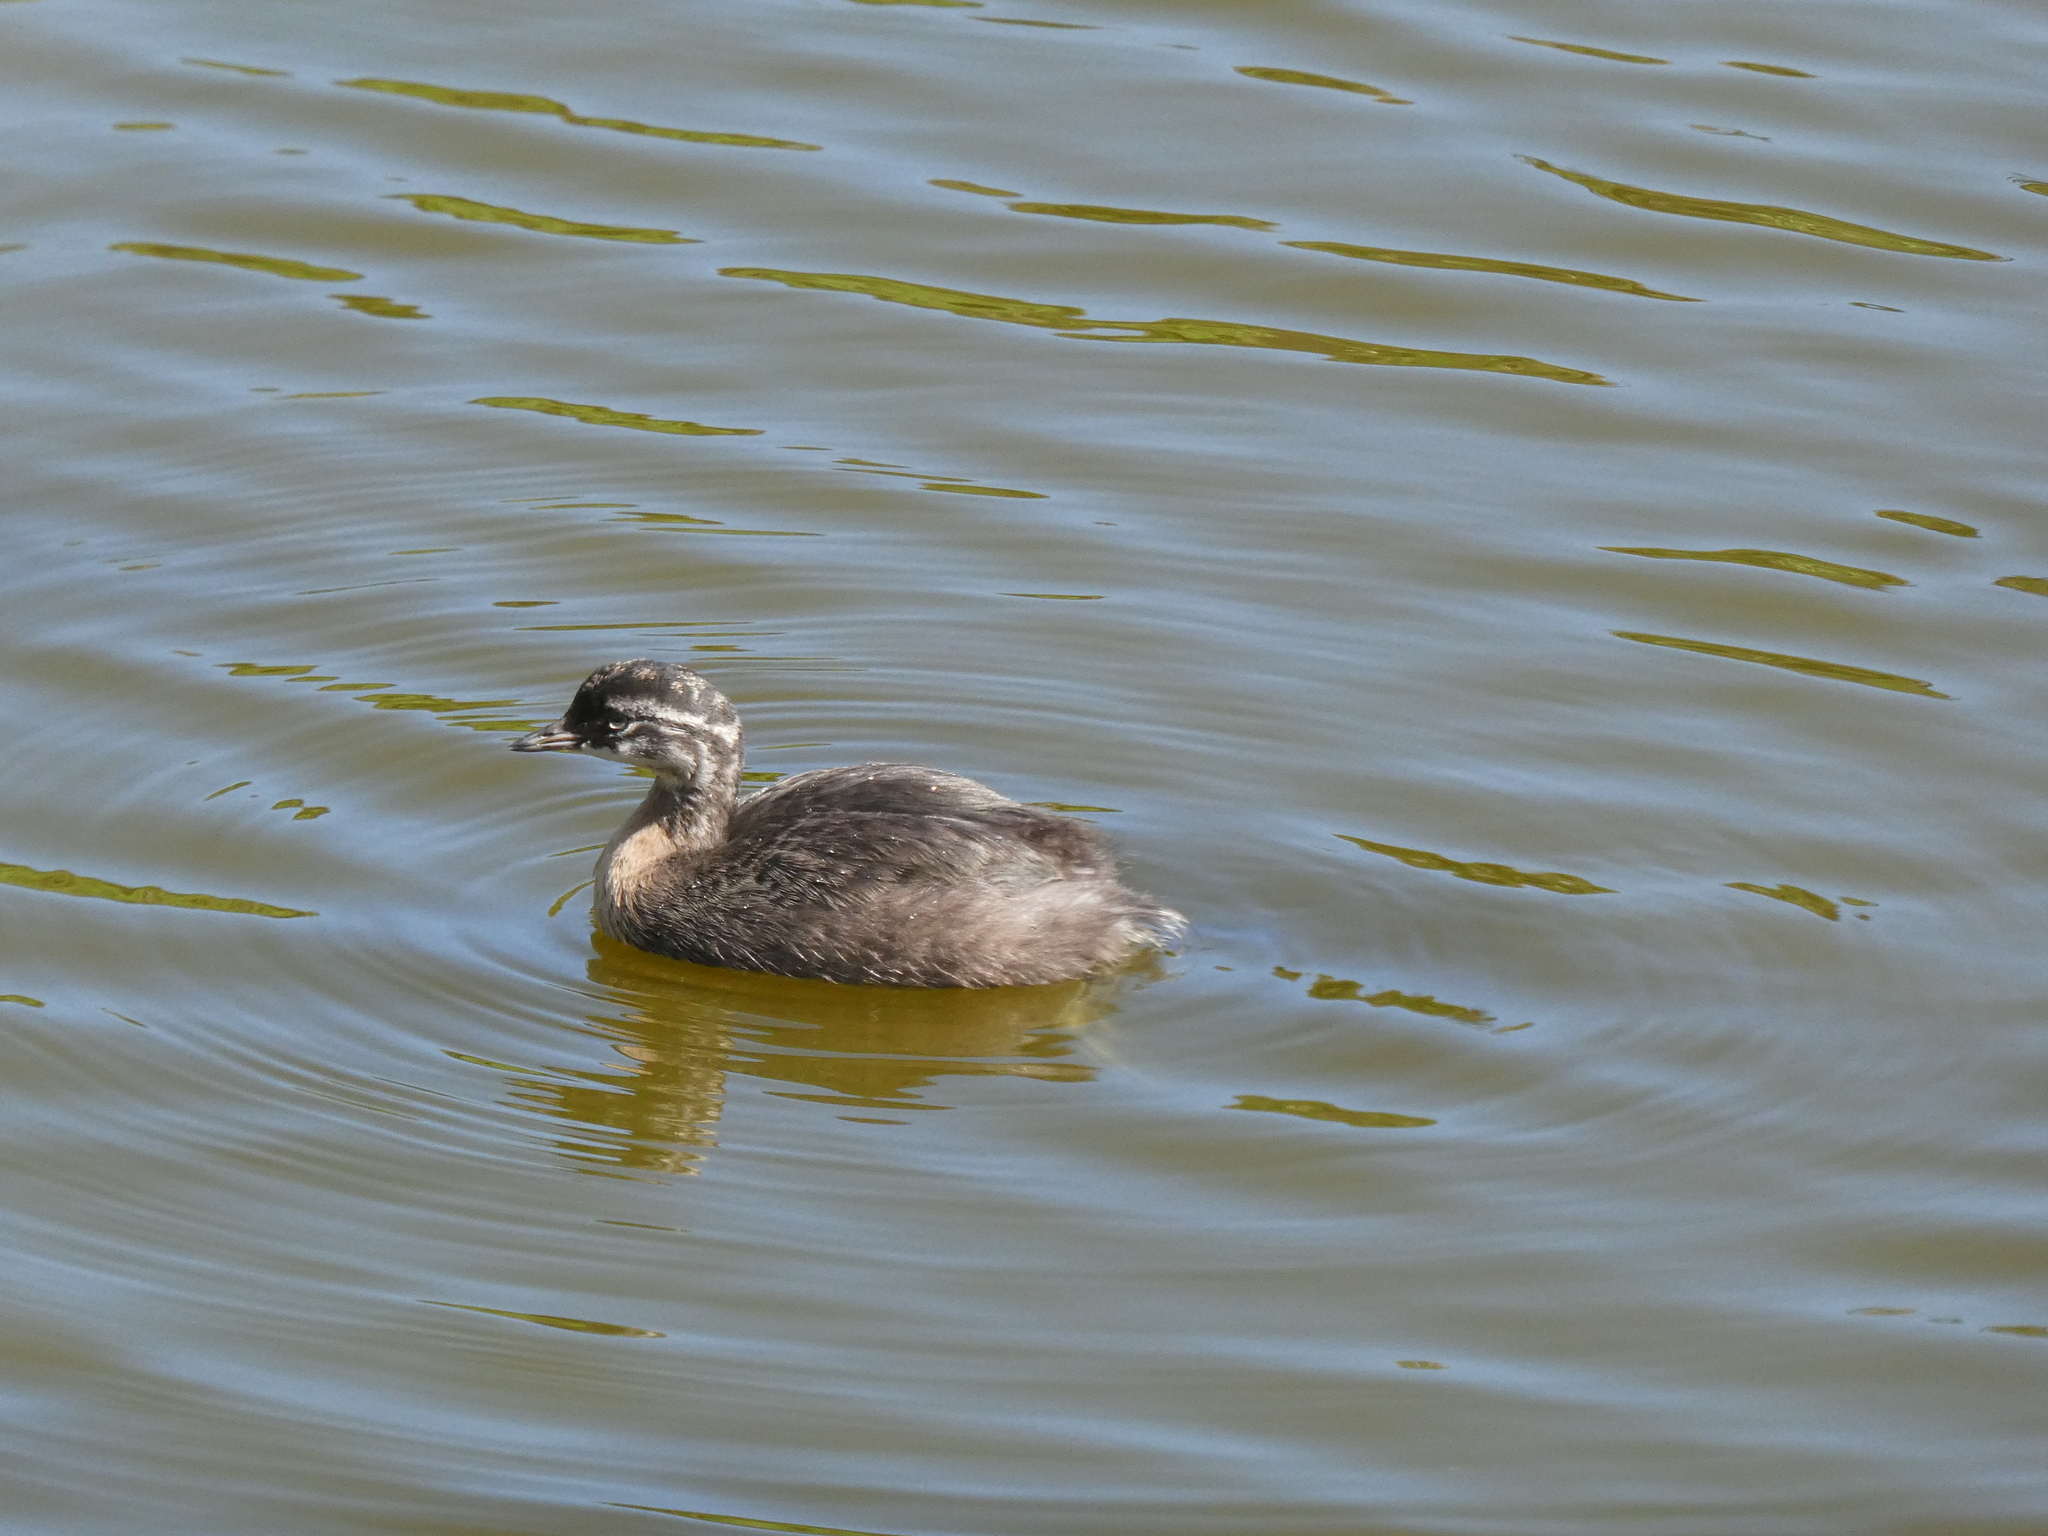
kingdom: Animalia
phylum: Chordata
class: Aves
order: Podicipediformes
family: Podicipedidae
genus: Poliocephalus
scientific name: Poliocephalus rufopectus
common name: New zealand grebe
